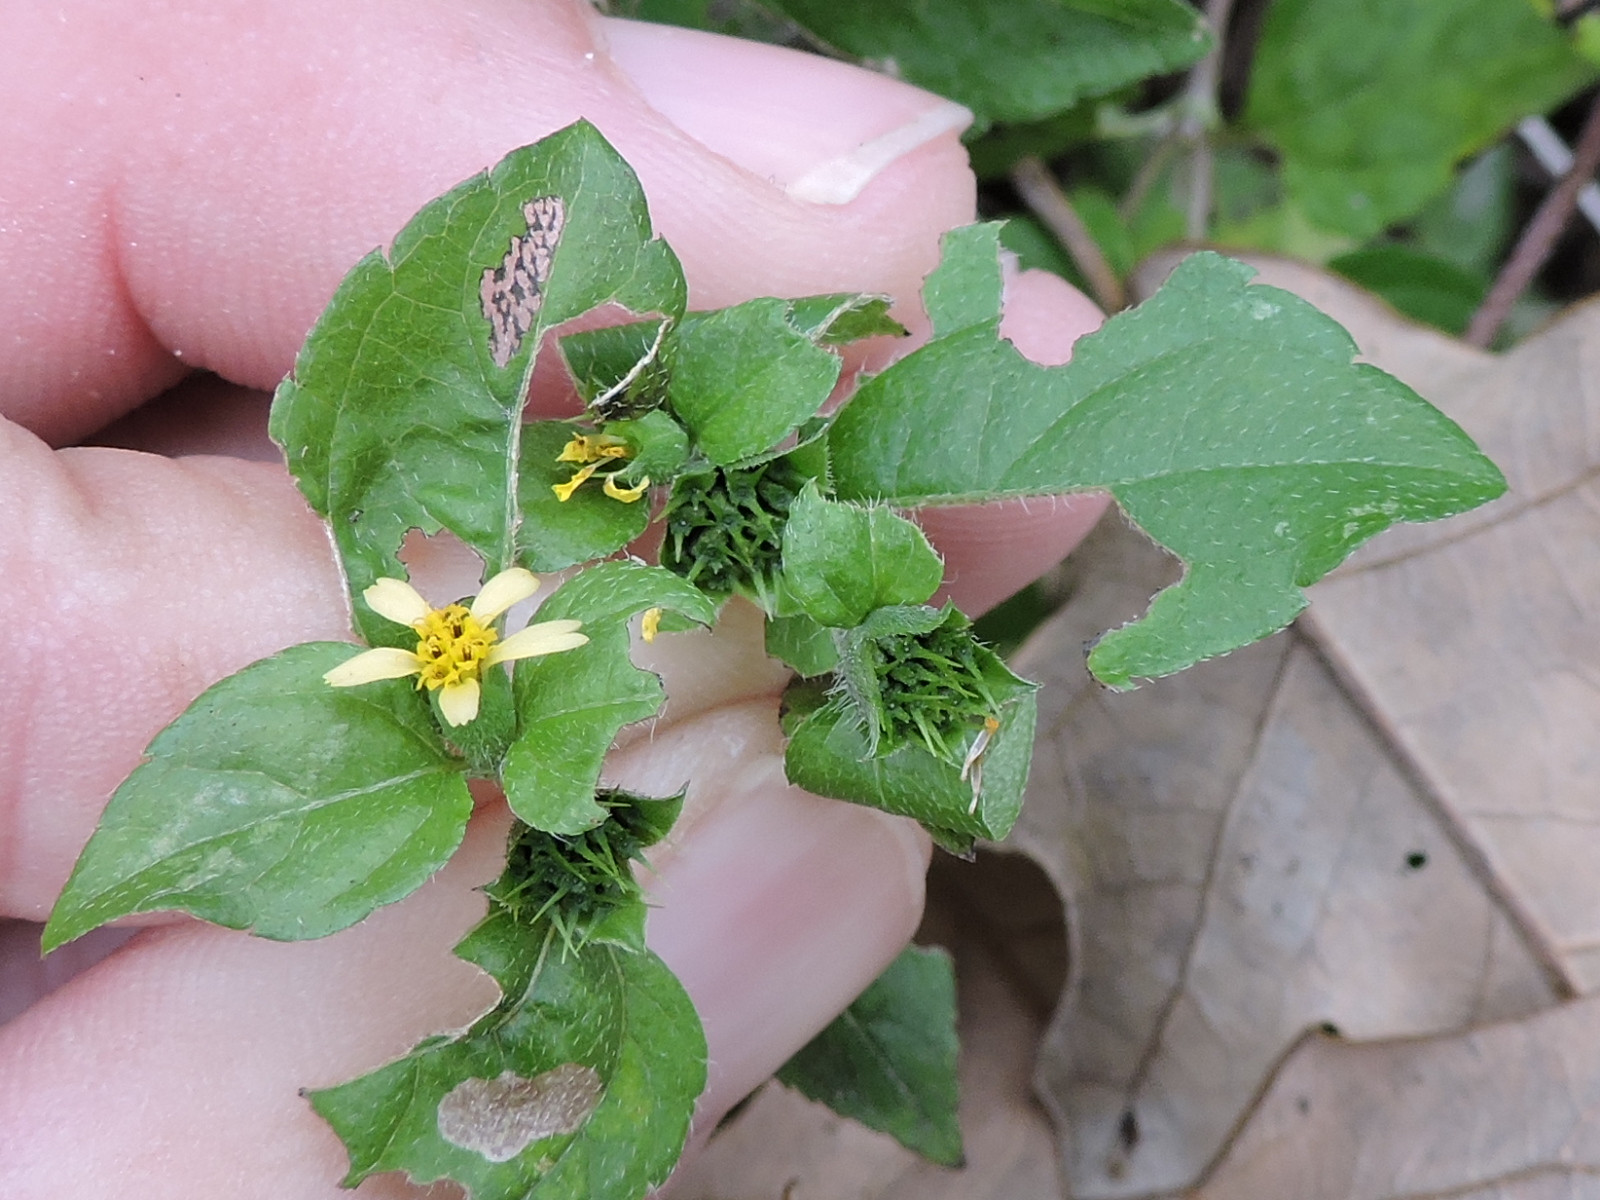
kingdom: Plantae
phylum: Tracheophyta
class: Magnoliopsida
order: Asterales
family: Asteraceae
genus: Calyptocarpus
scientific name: Calyptocarpus vialis
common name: Straggler daisy
